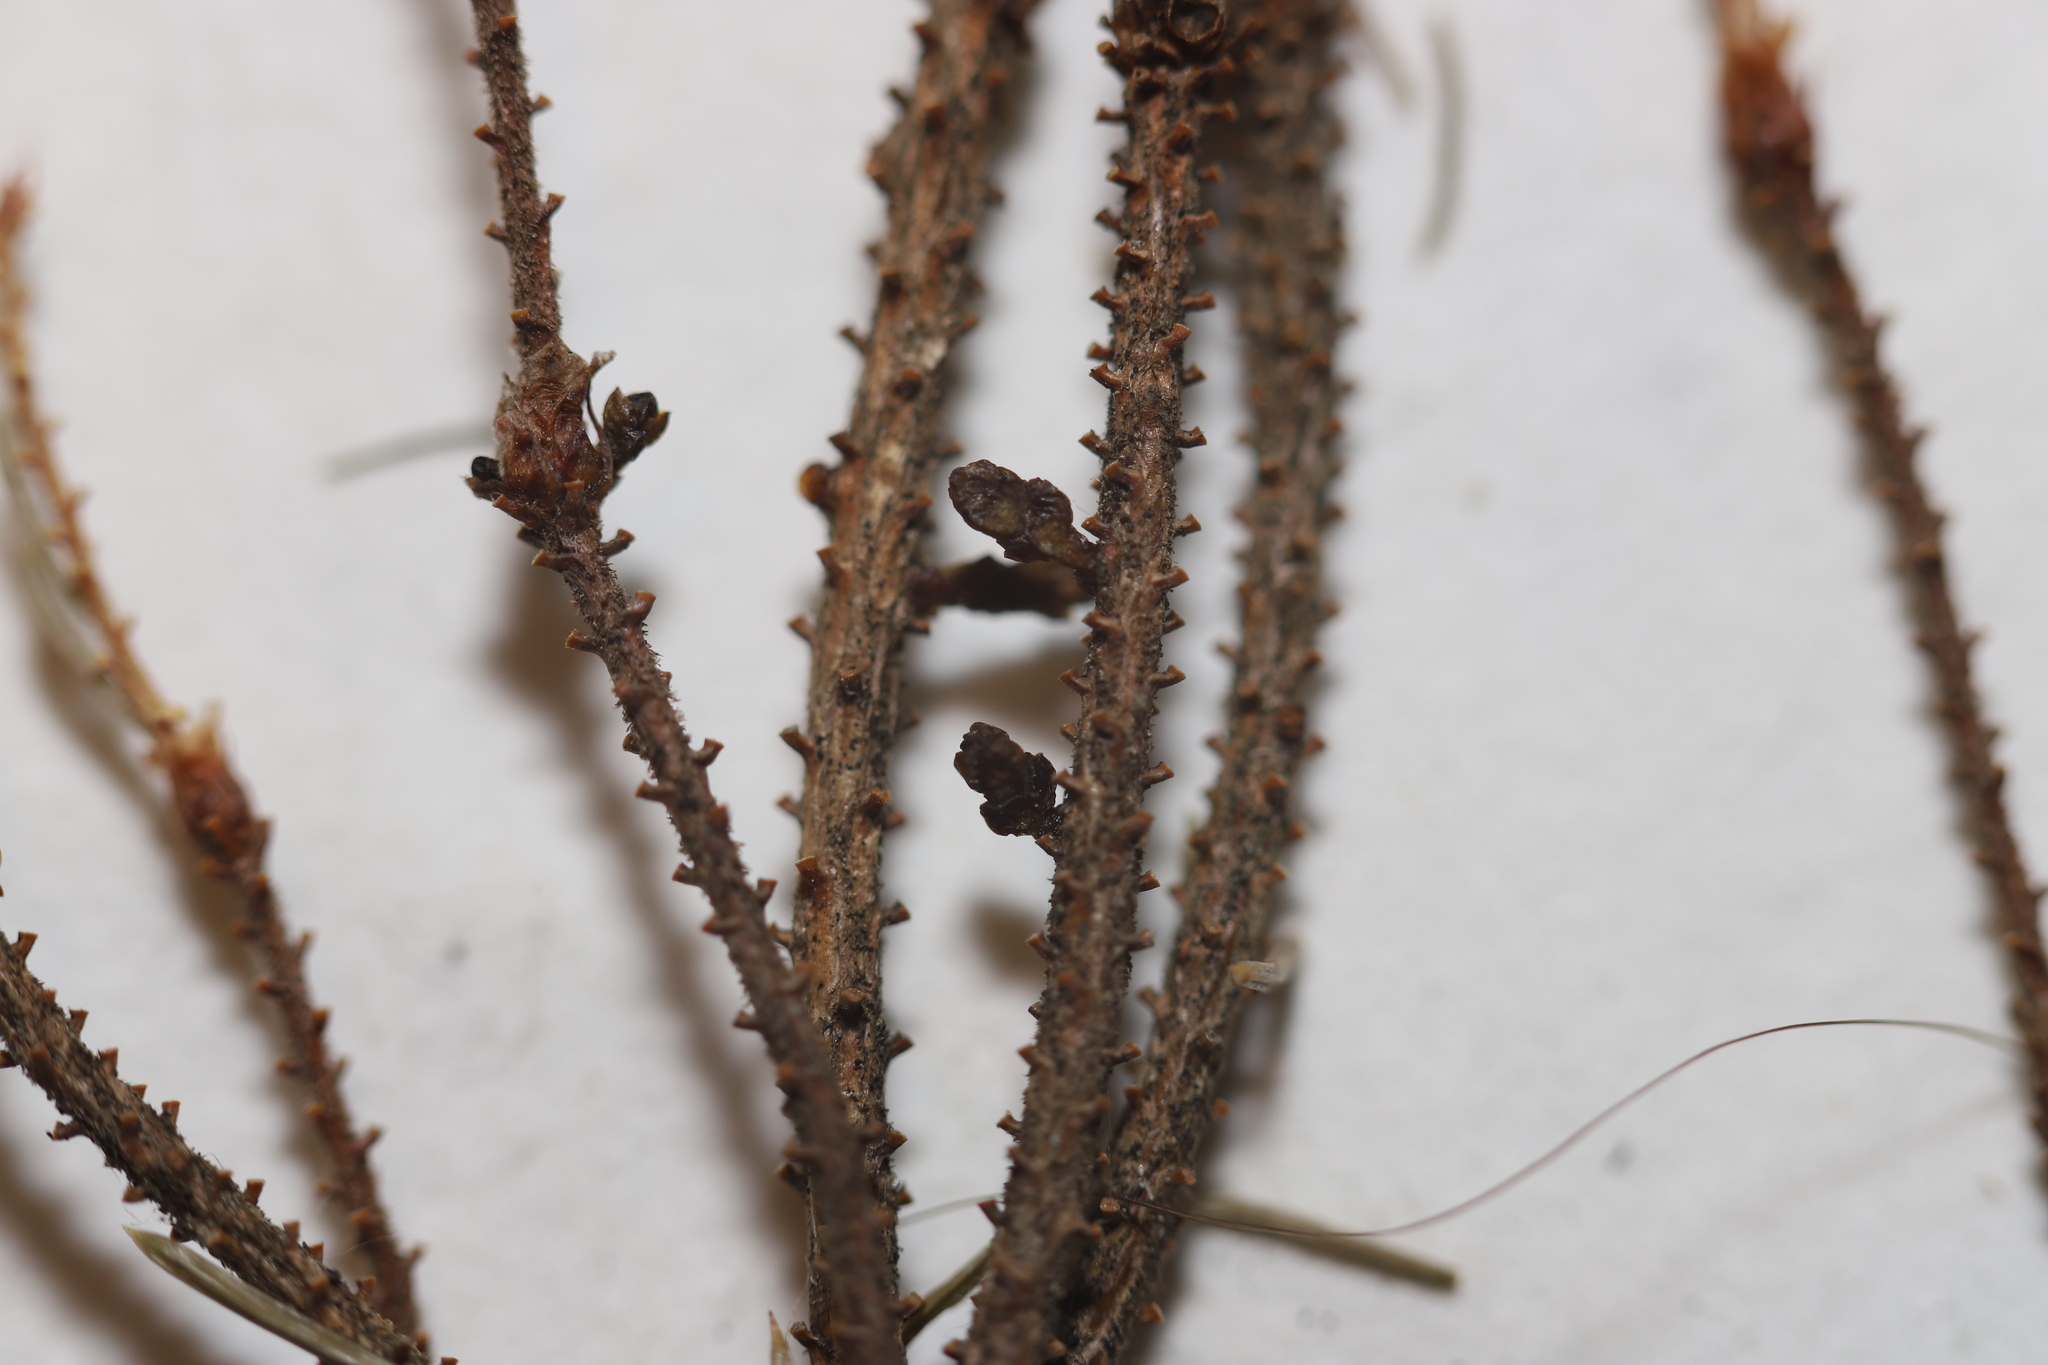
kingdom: Plantae
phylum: Tracheophyta
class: Magnoliopsida
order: Santalales
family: Viscaceae
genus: Arceuthobium
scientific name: Arceuthobium pusillum
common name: Dwarf-mistletoe
